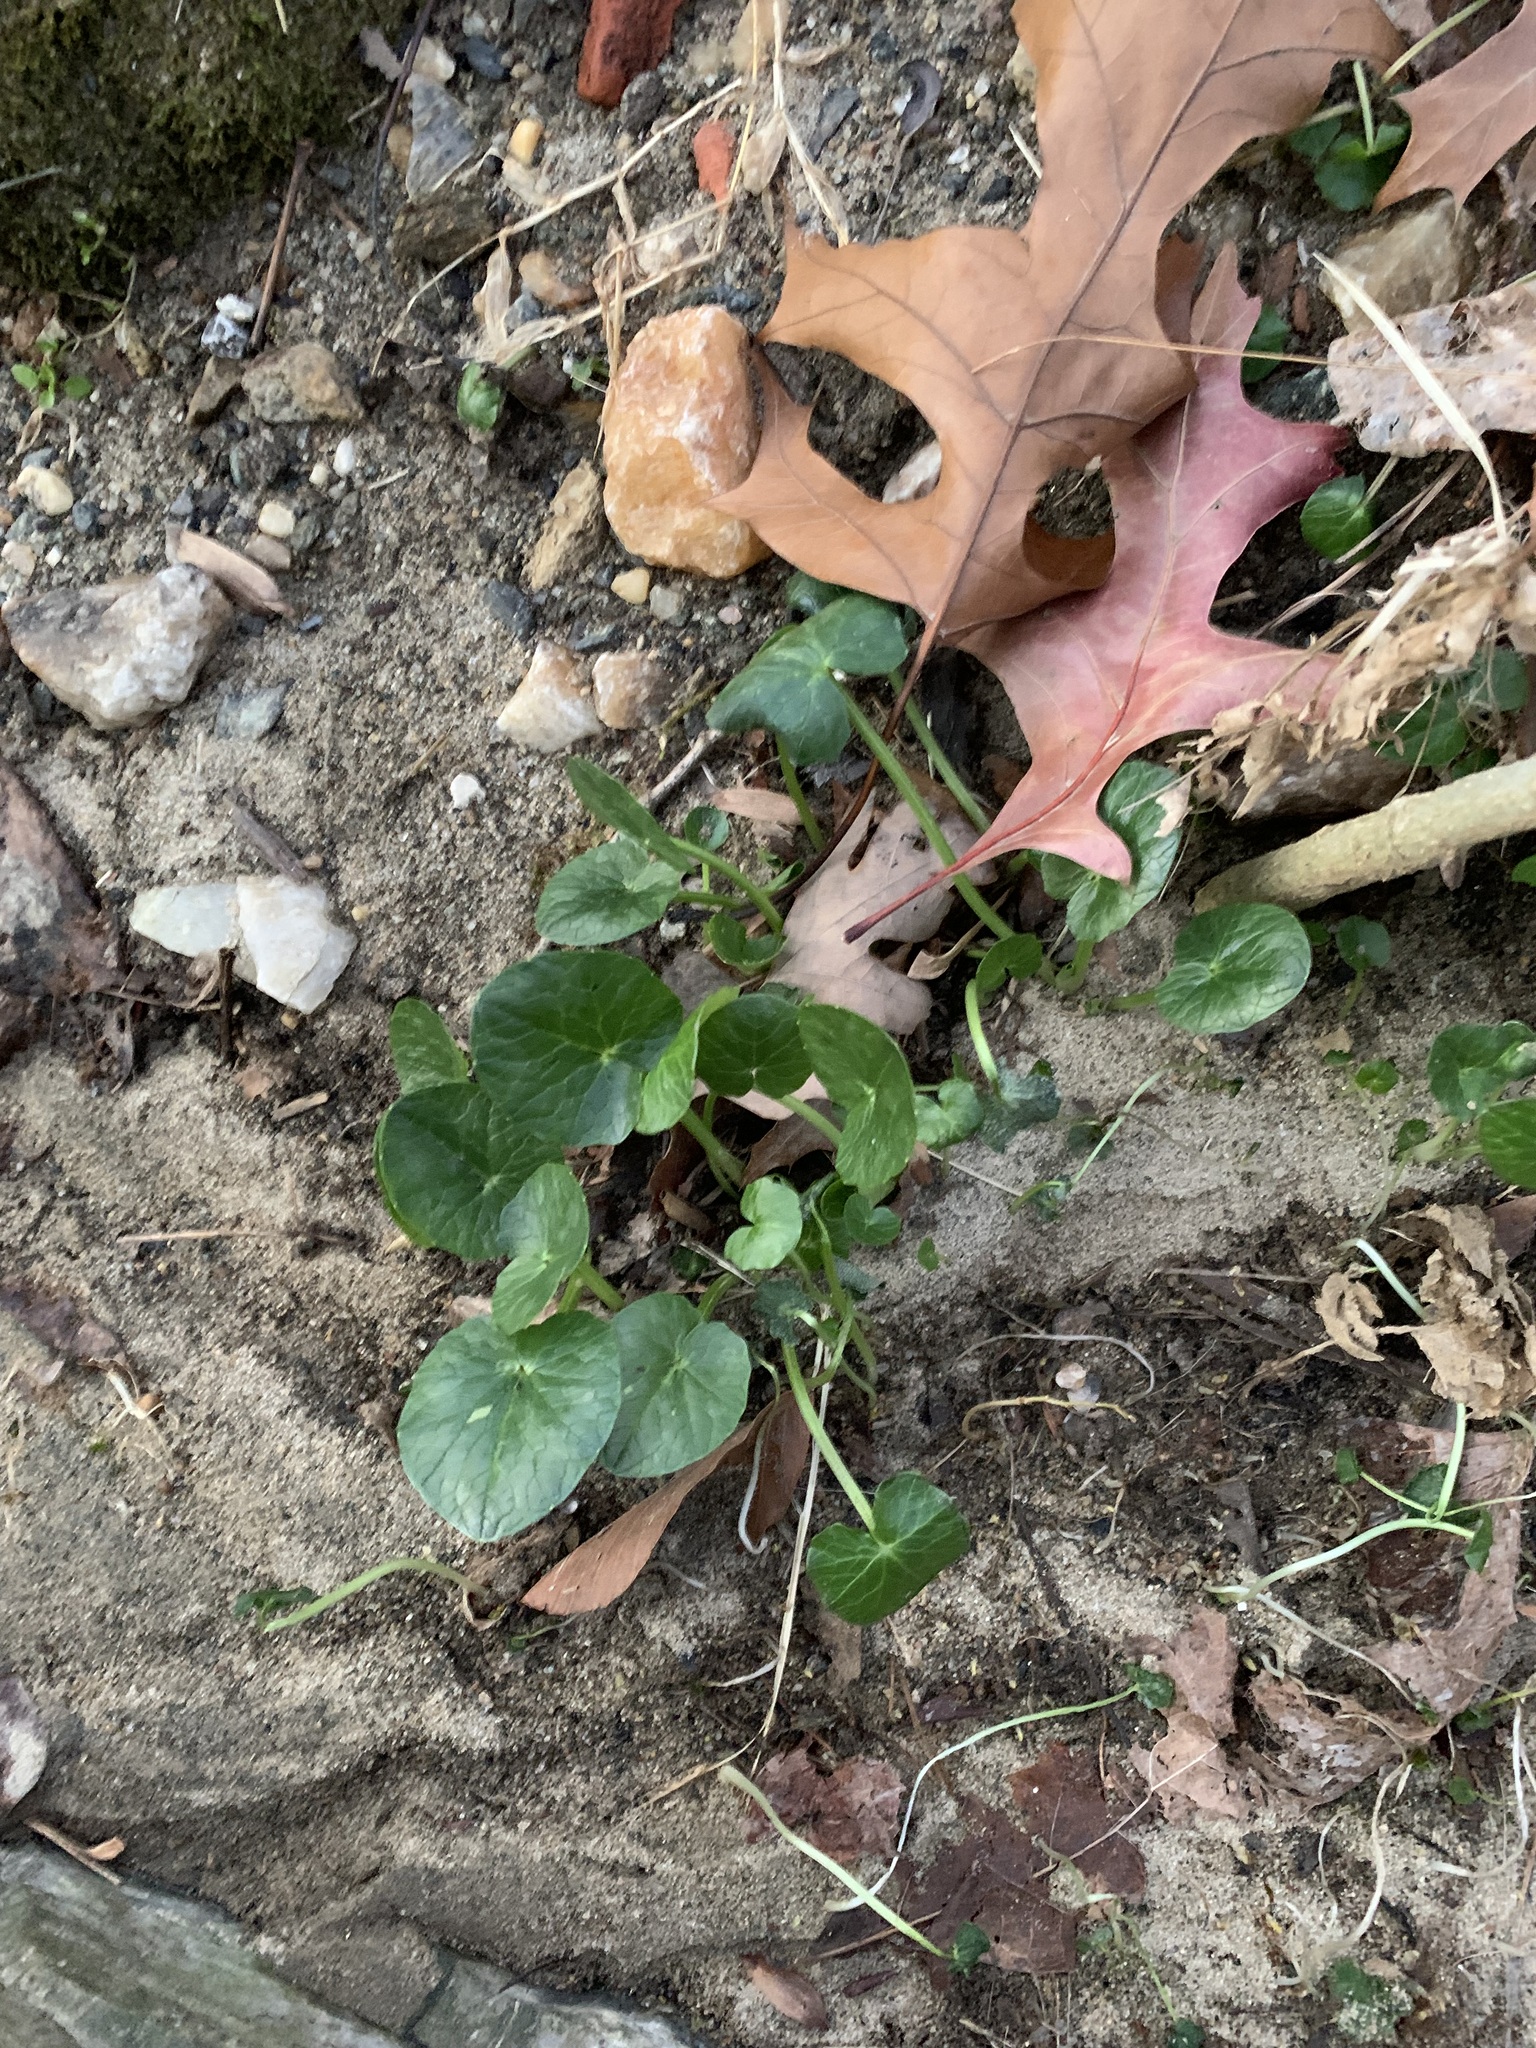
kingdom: Plantae
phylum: Tracheophyta
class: Magnoliopsida
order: Ranunculales
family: Ranunculaceae
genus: Ficaria
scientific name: Ficaria verna
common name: Lesser celandine
